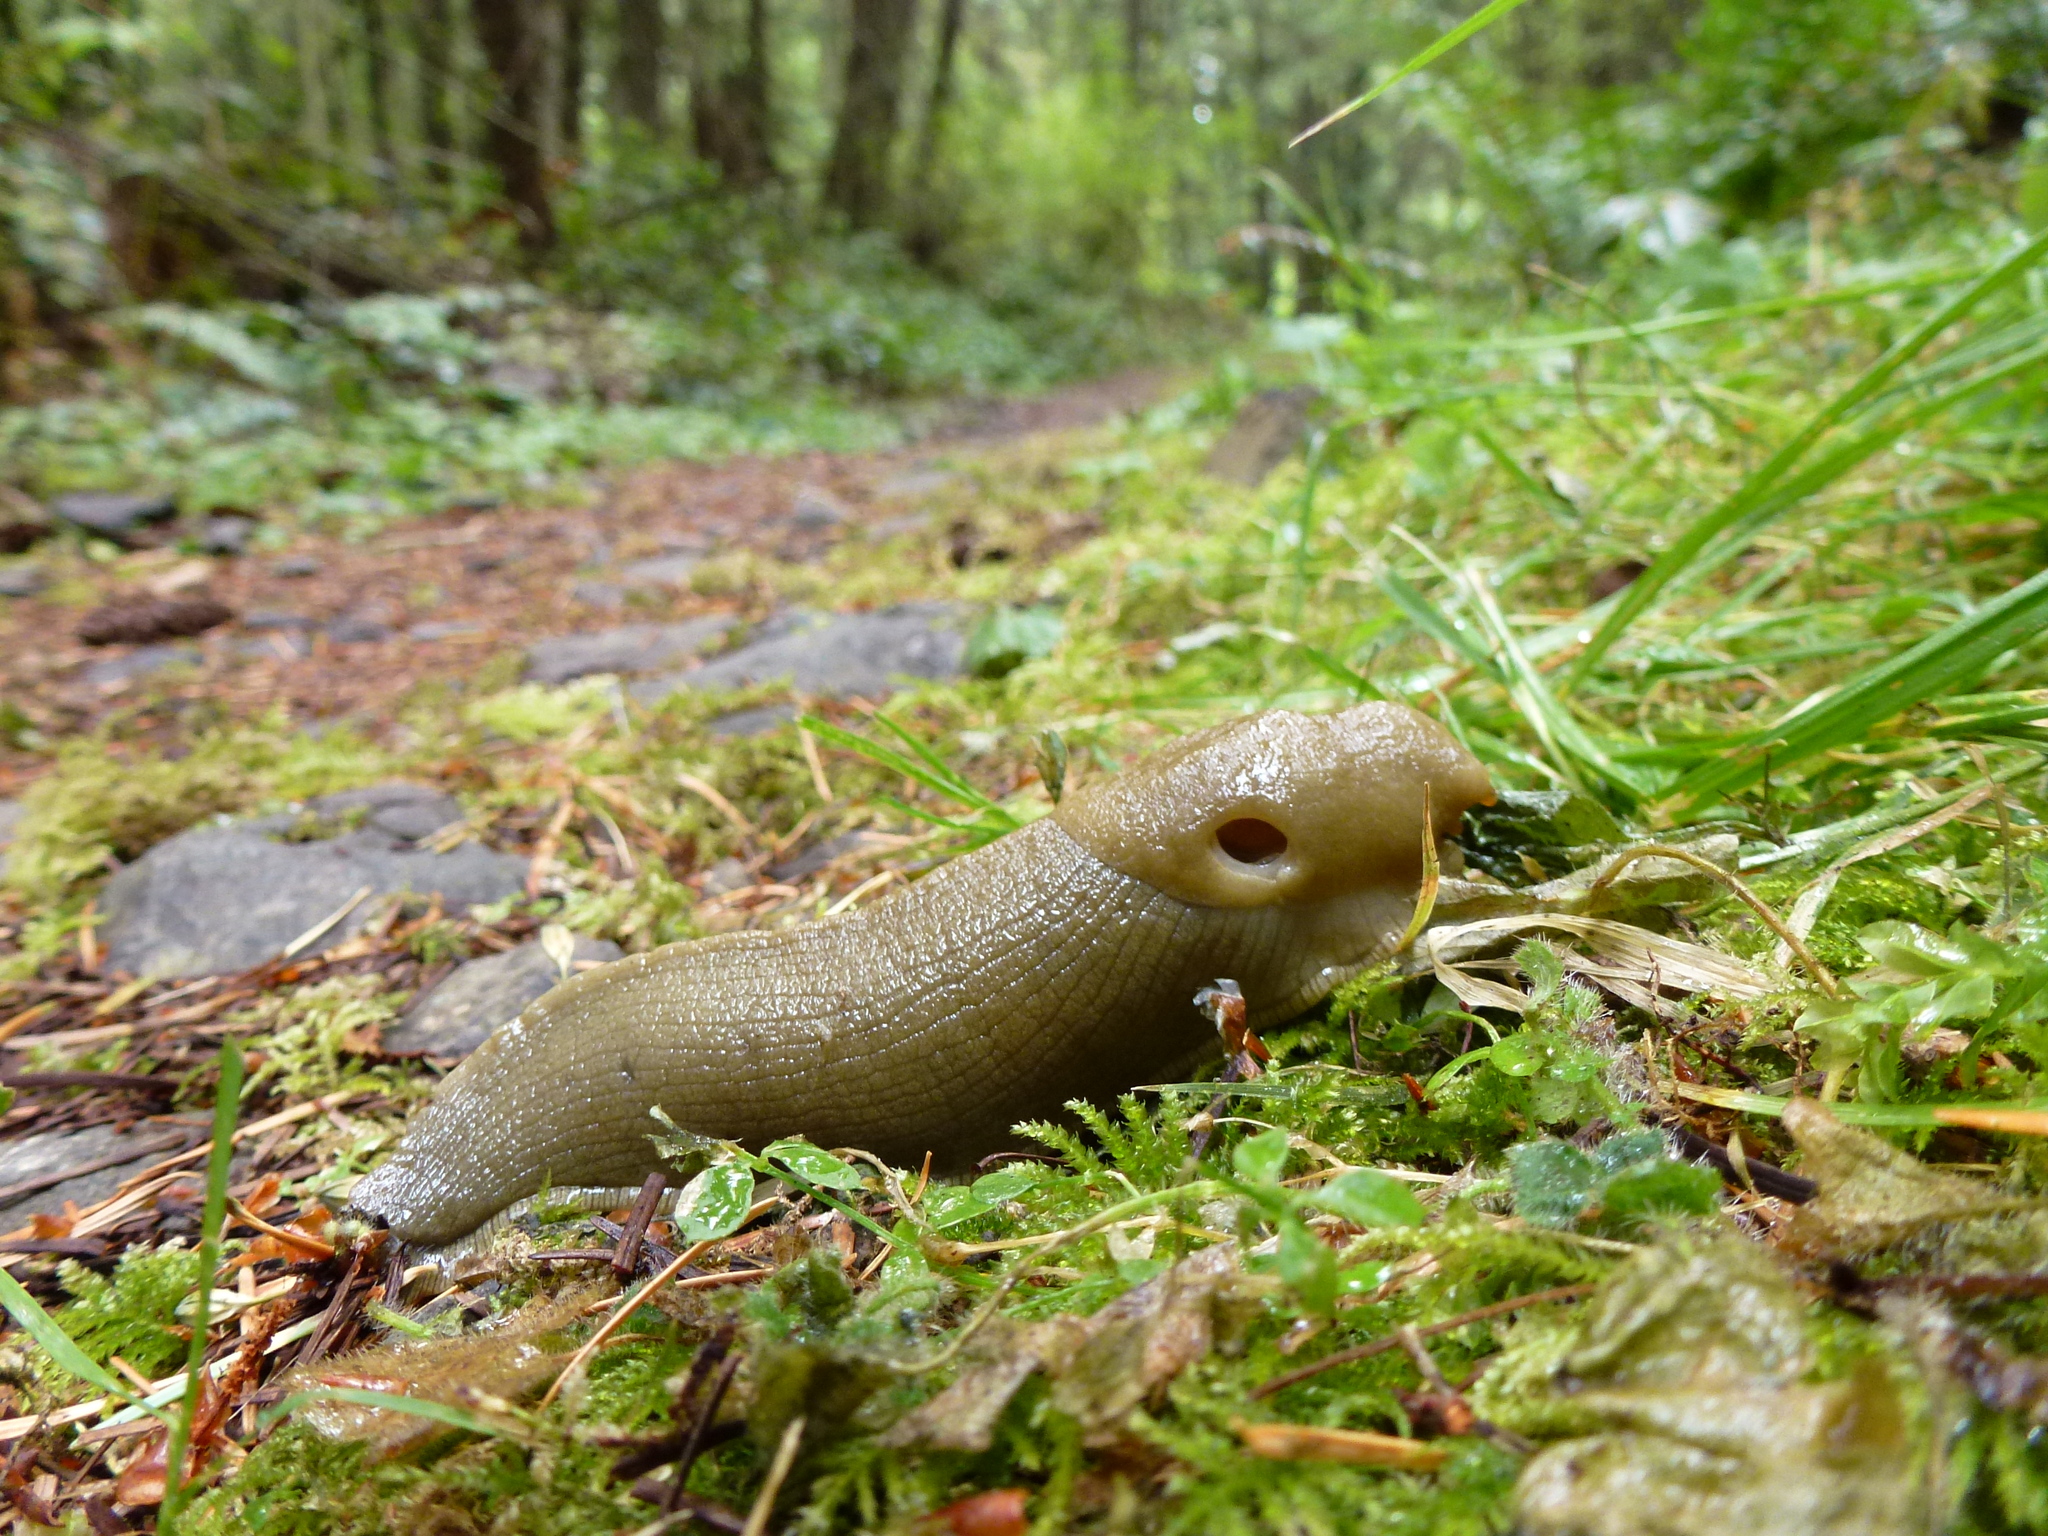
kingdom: Animalia
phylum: Mollusca
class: Gastropoda
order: Stylommatophora
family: Ariolimacidae
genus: Ariolimax
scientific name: Ariolimax columbianus
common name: Pacific banana slug
